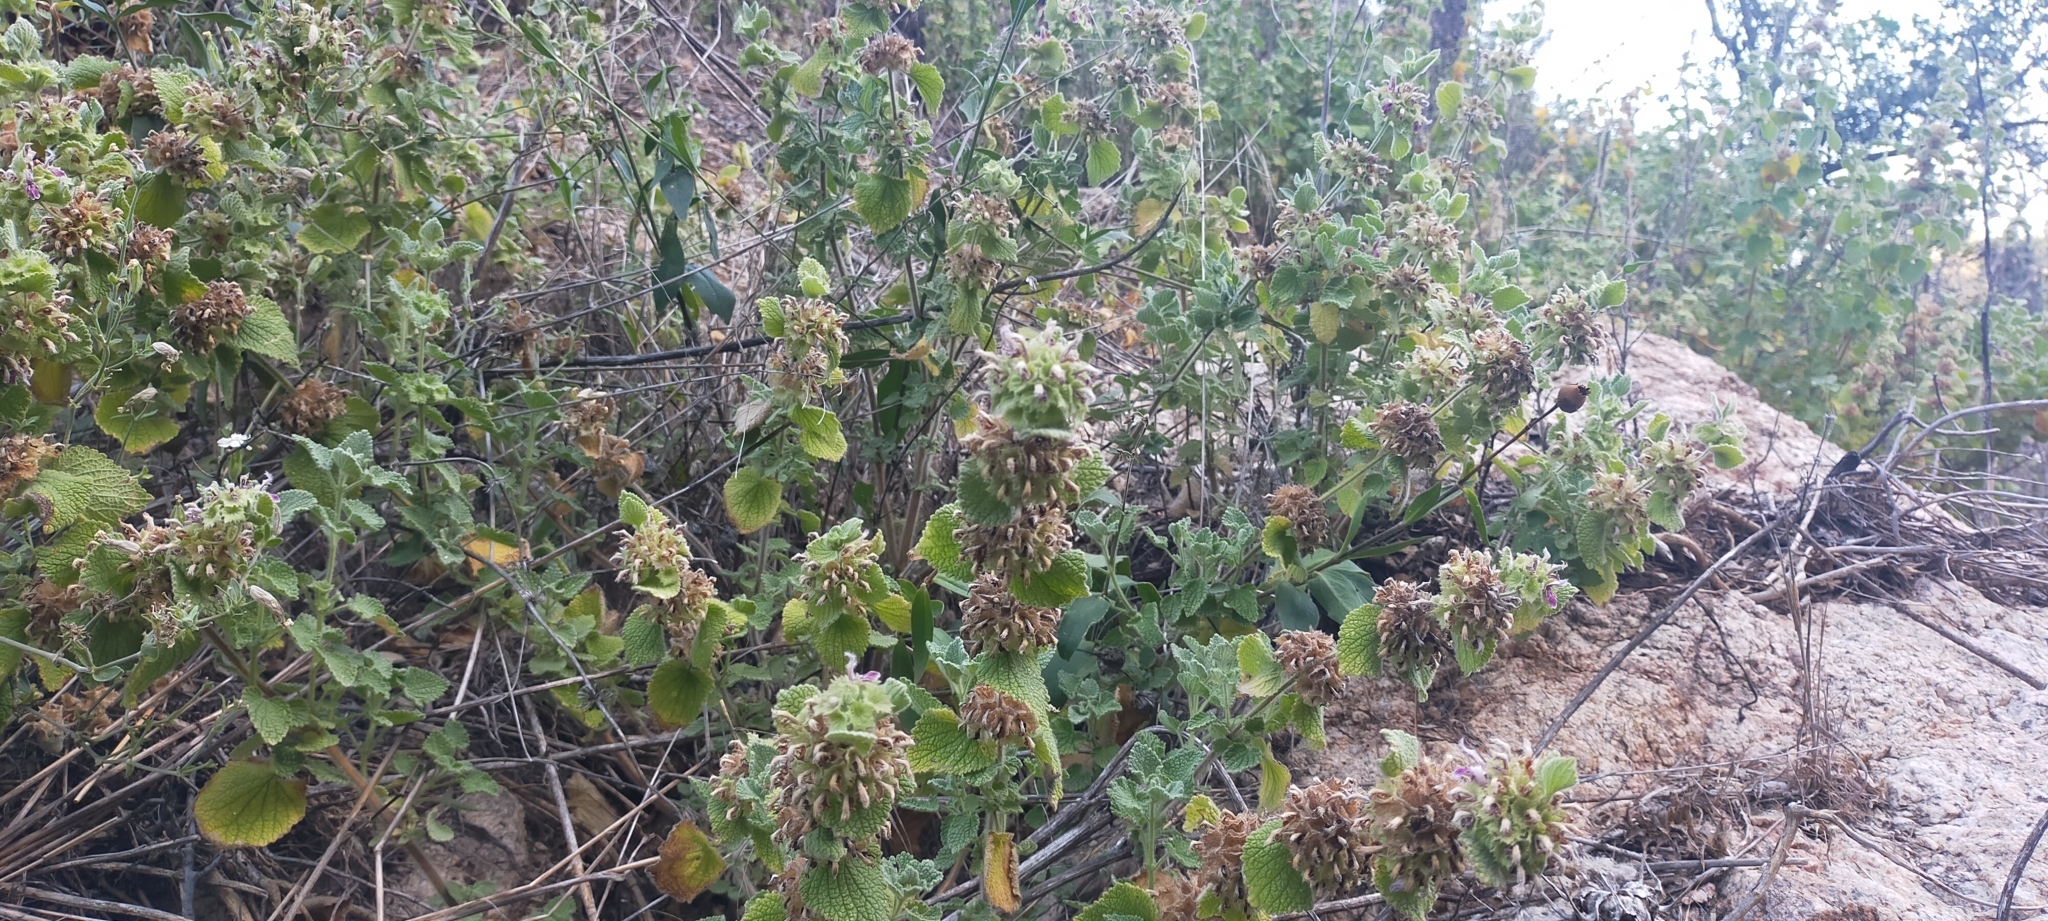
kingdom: Plantae
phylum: Tracheophyta
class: Magnoliopsida
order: Lamiales
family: Lamiaceae
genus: Pseudodictamnus
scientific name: Pseudodictamnus hirsutus
